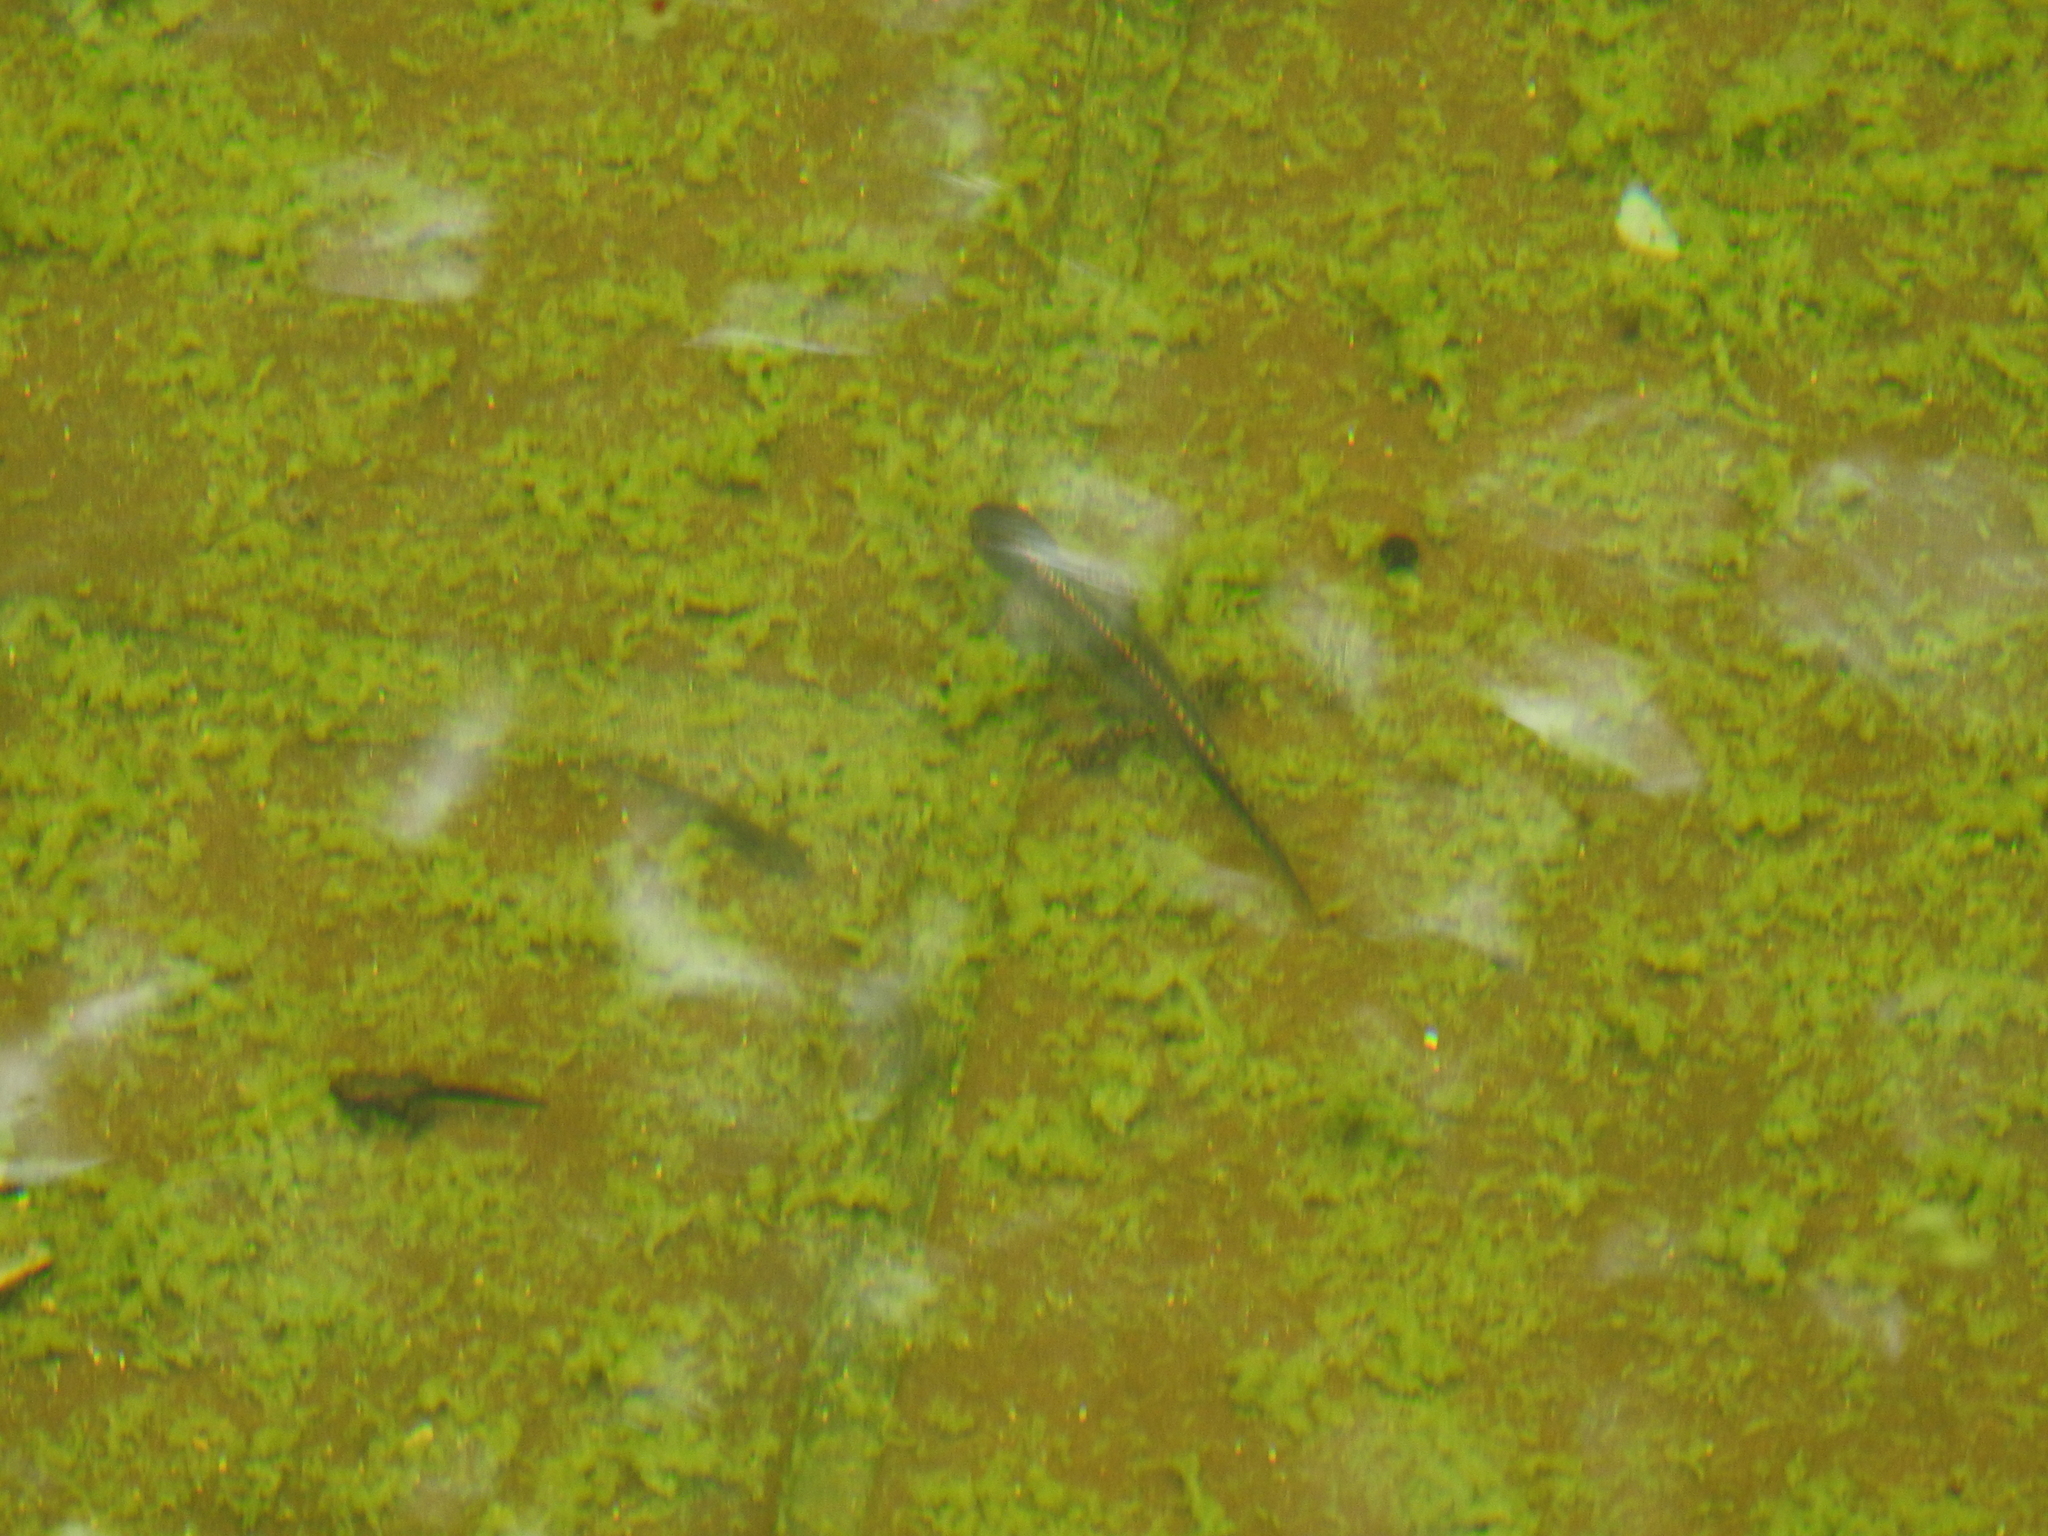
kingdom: Animalia
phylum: Chordata
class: Amphibia
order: Caudata
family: Salamandridae
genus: Ichthyosaura
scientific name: Ichthyosaura alpestris
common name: Alpine newt
